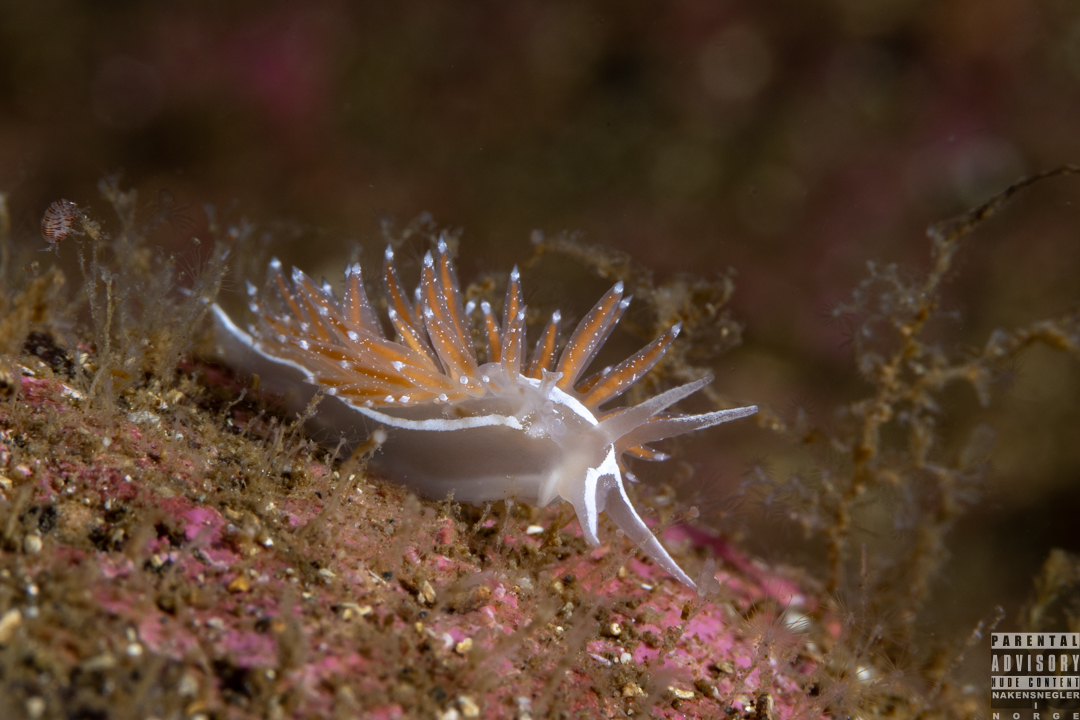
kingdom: Animalia
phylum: Mollusca
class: Gastropoda
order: Nudibranchia
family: Coryphellidae
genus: Coryphella
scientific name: Coryphella monicae
